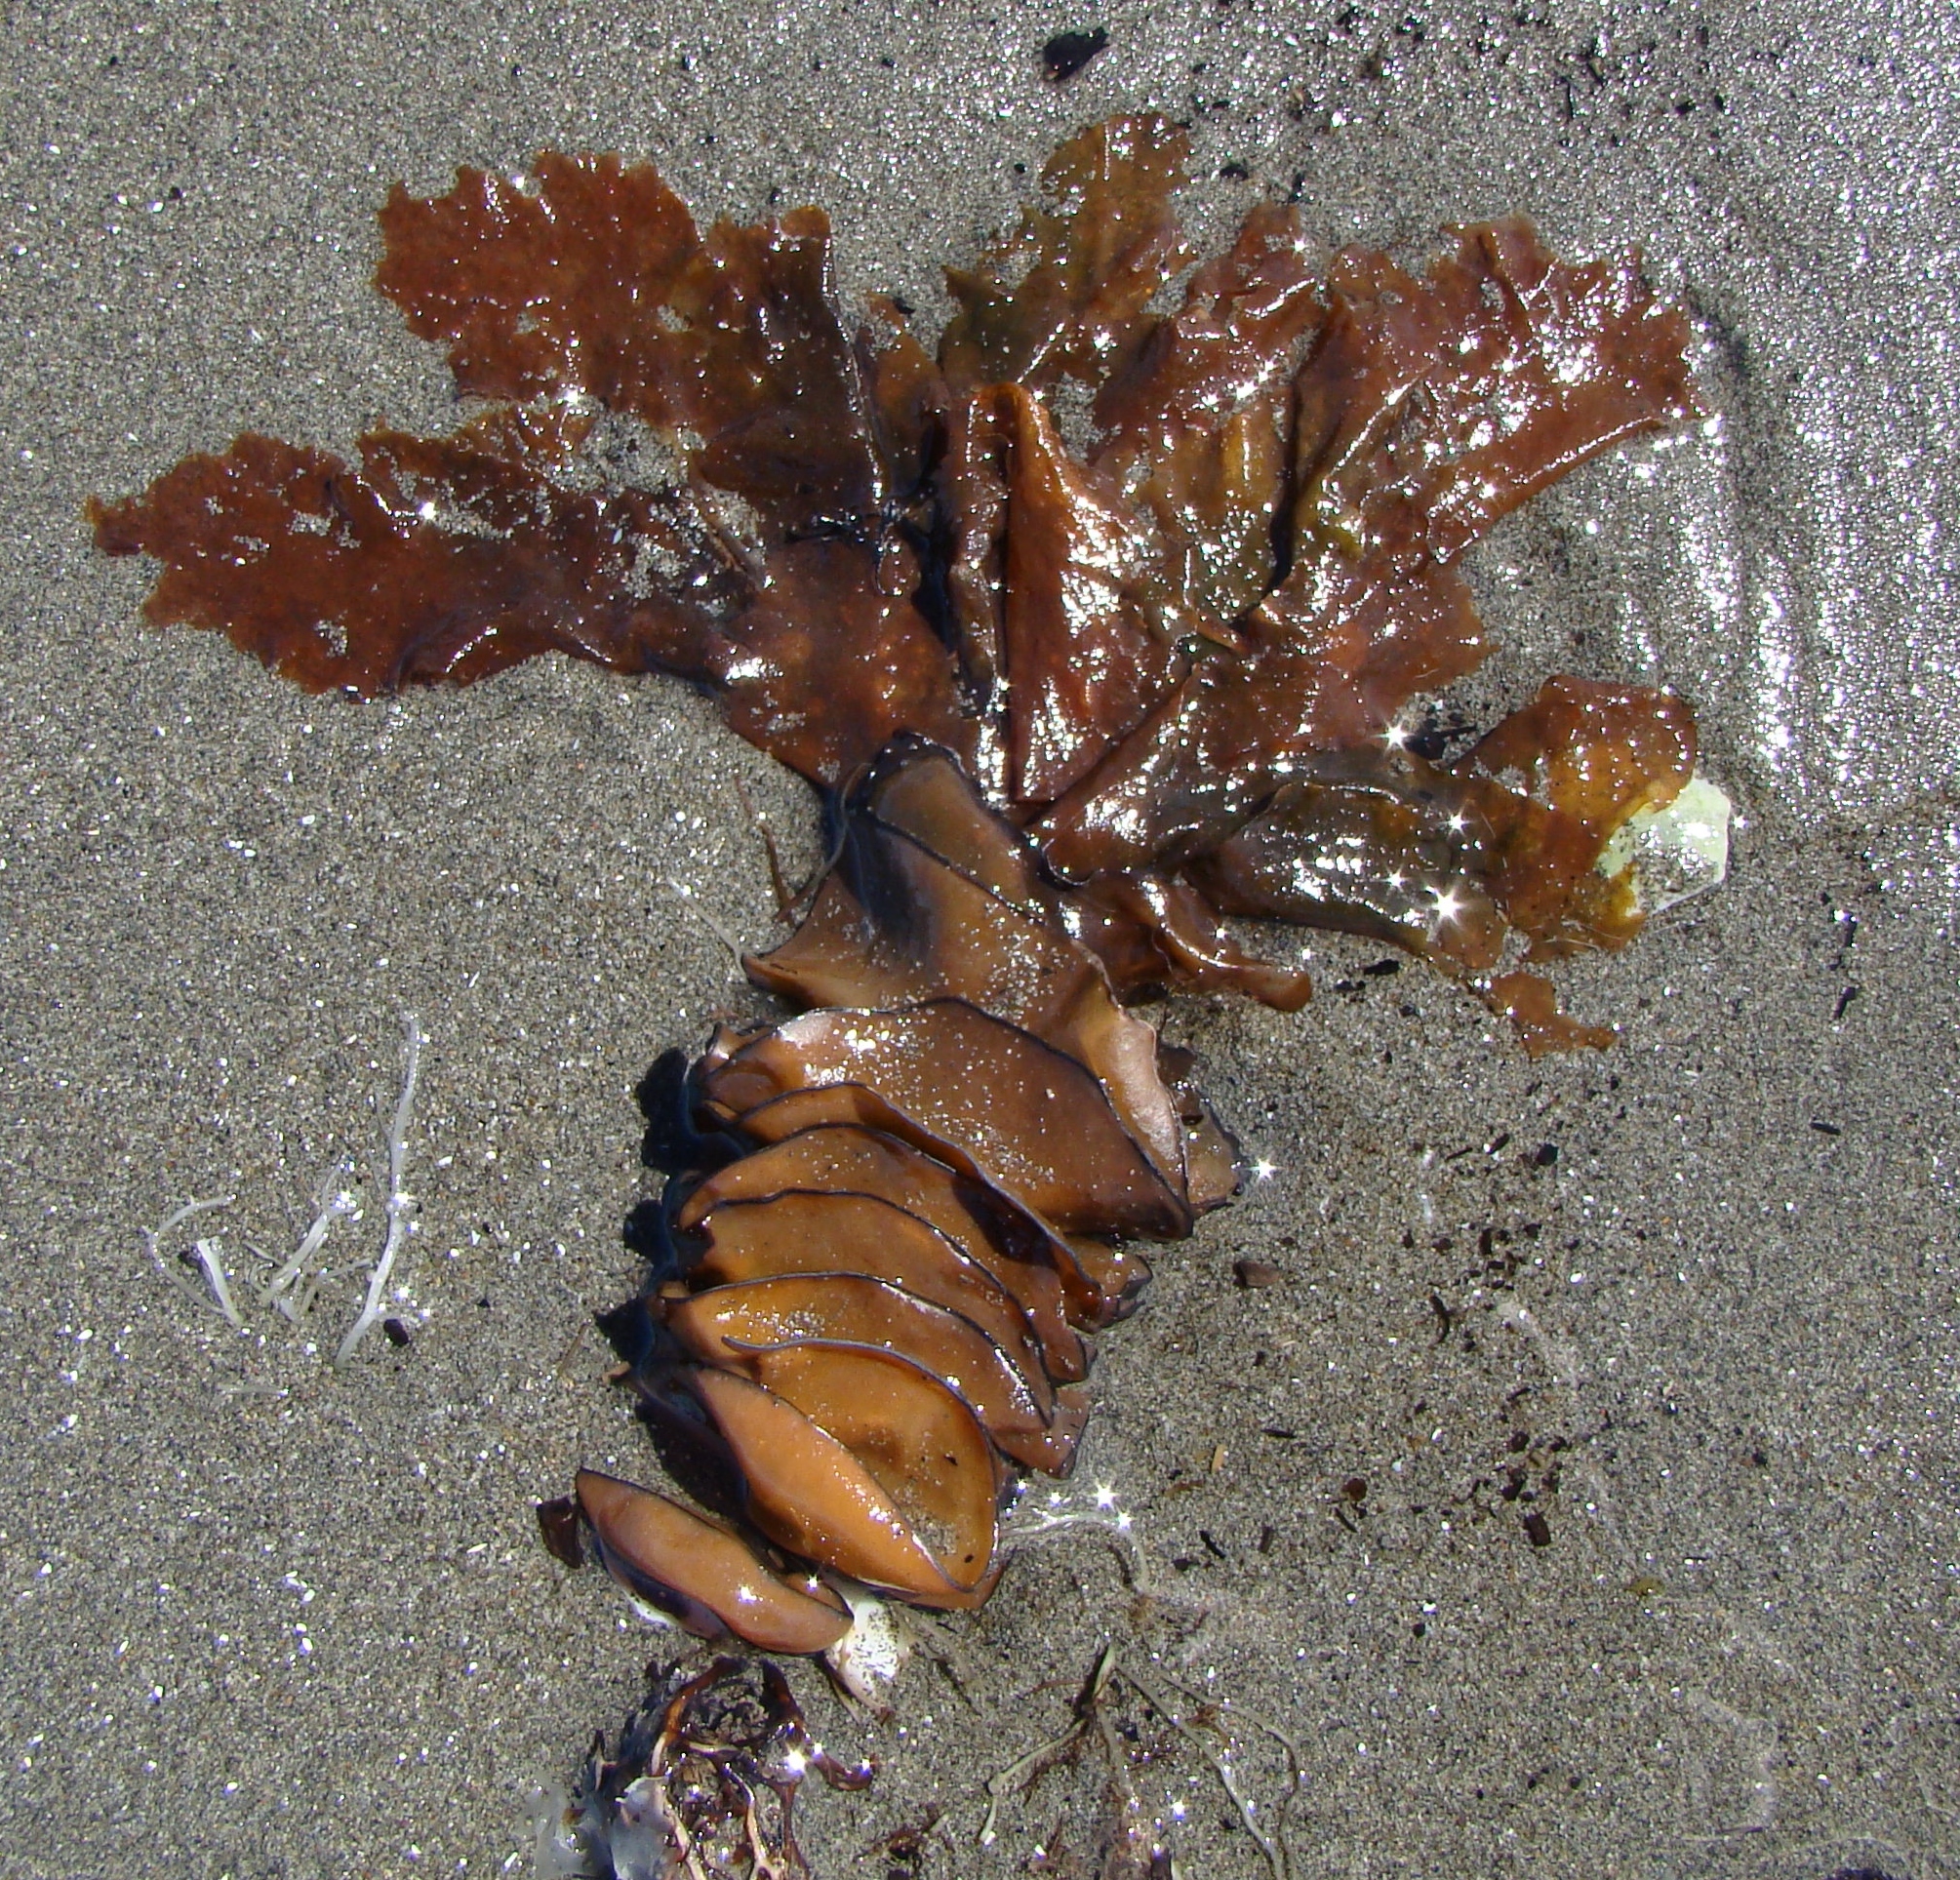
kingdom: Chromista
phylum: Ochrophyta
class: Phaeophyceae
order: Laminariales
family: Alariaceae
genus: Undaria
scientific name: Undaria pinnatifida
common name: Asian kelp
